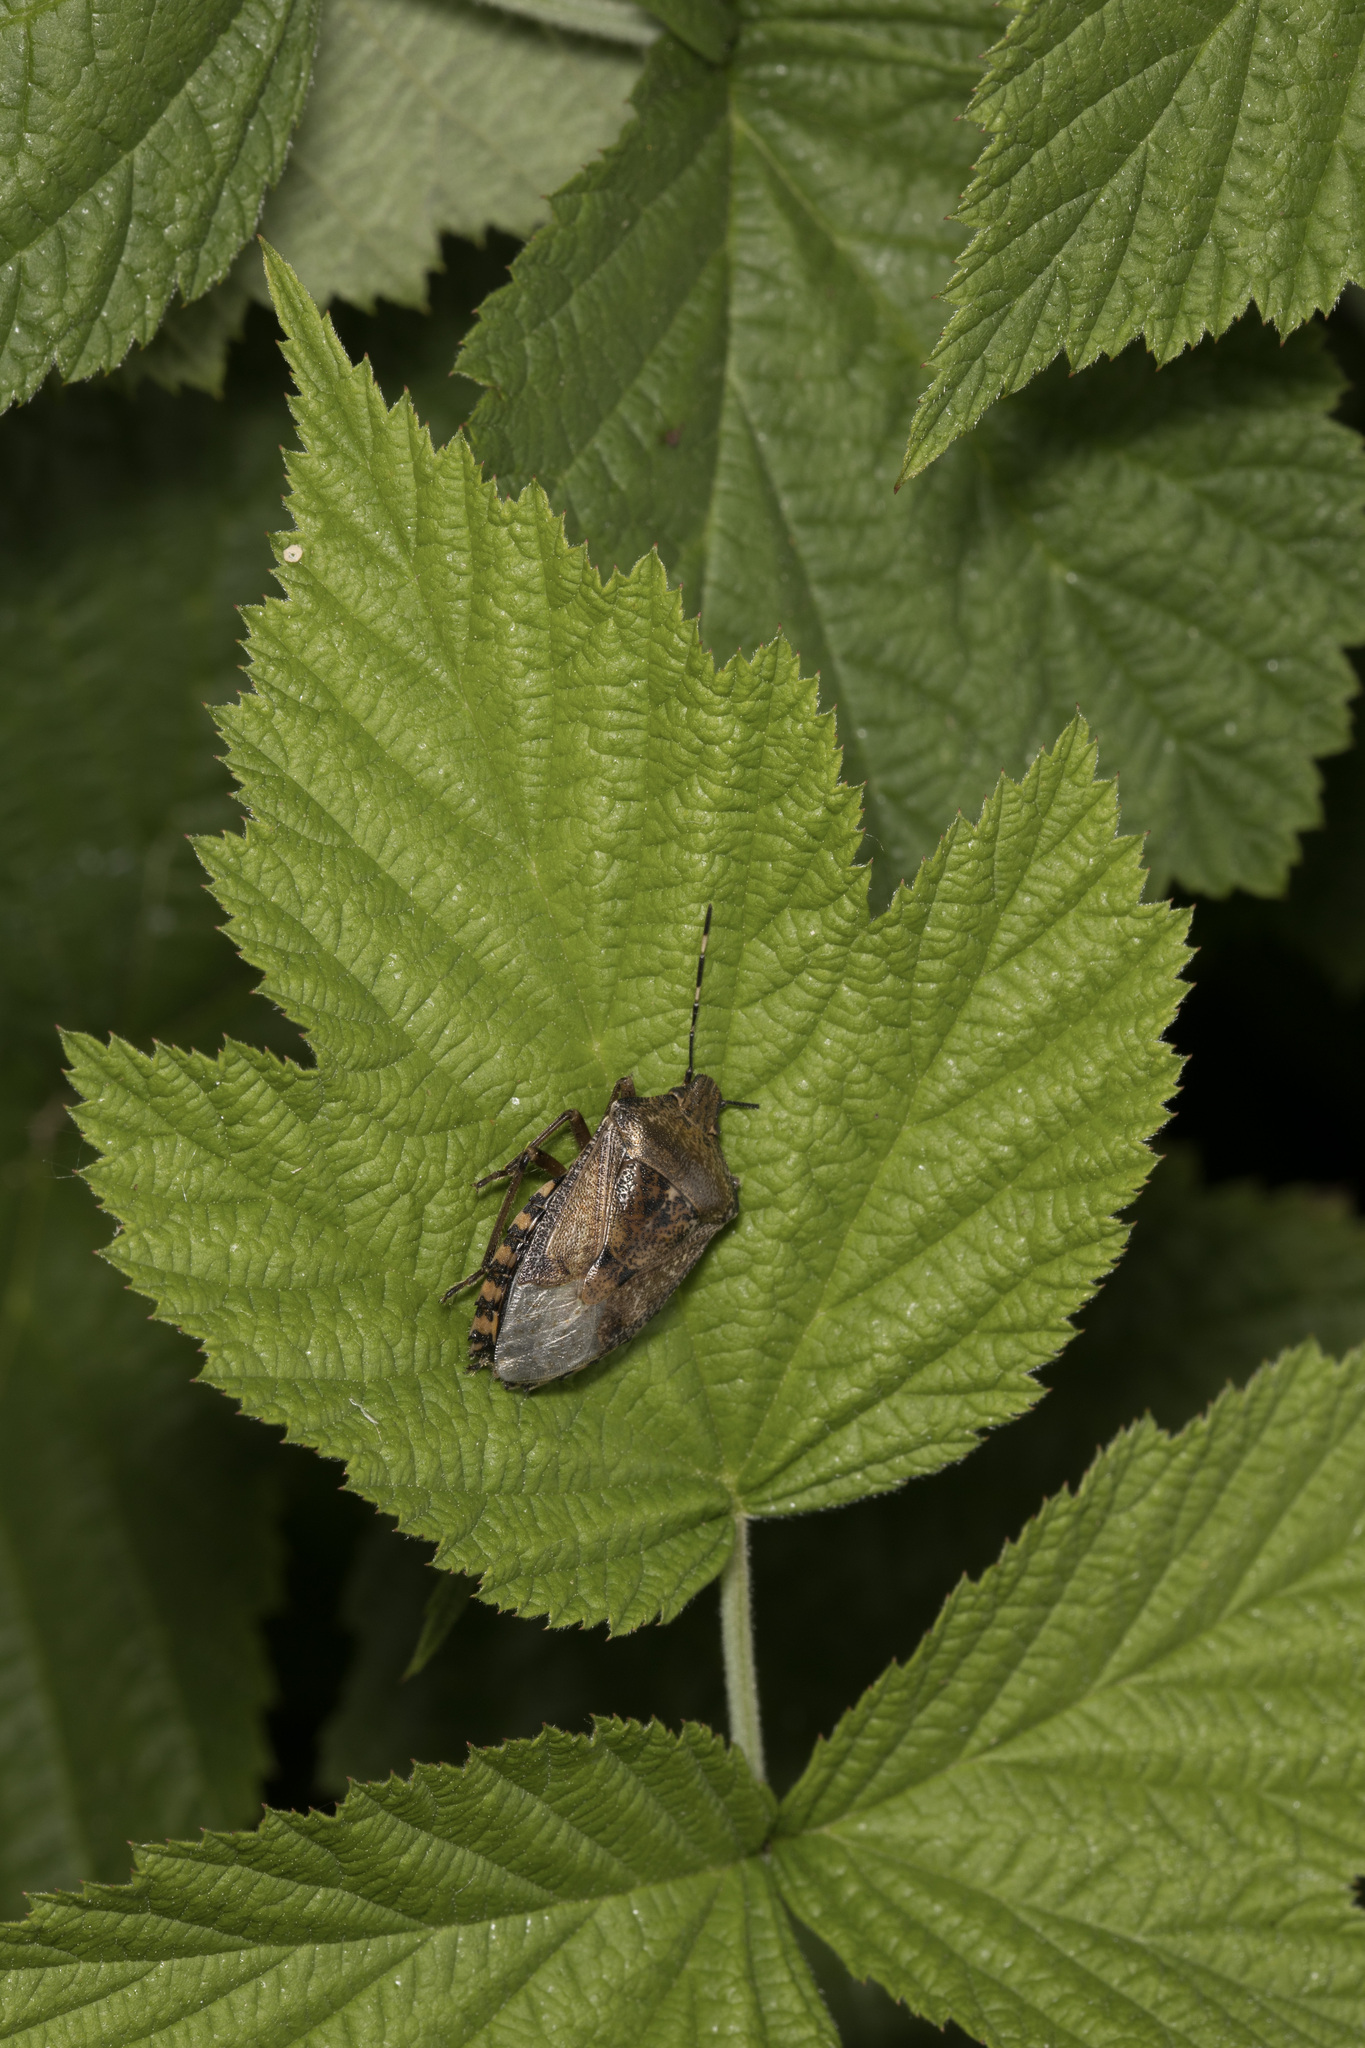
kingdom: Animalia
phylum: Arthropoda
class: Insecta
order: Hemiptera
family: Pentatomidae
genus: Rhaphigaster
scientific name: Rhaphigaster nebulosa
